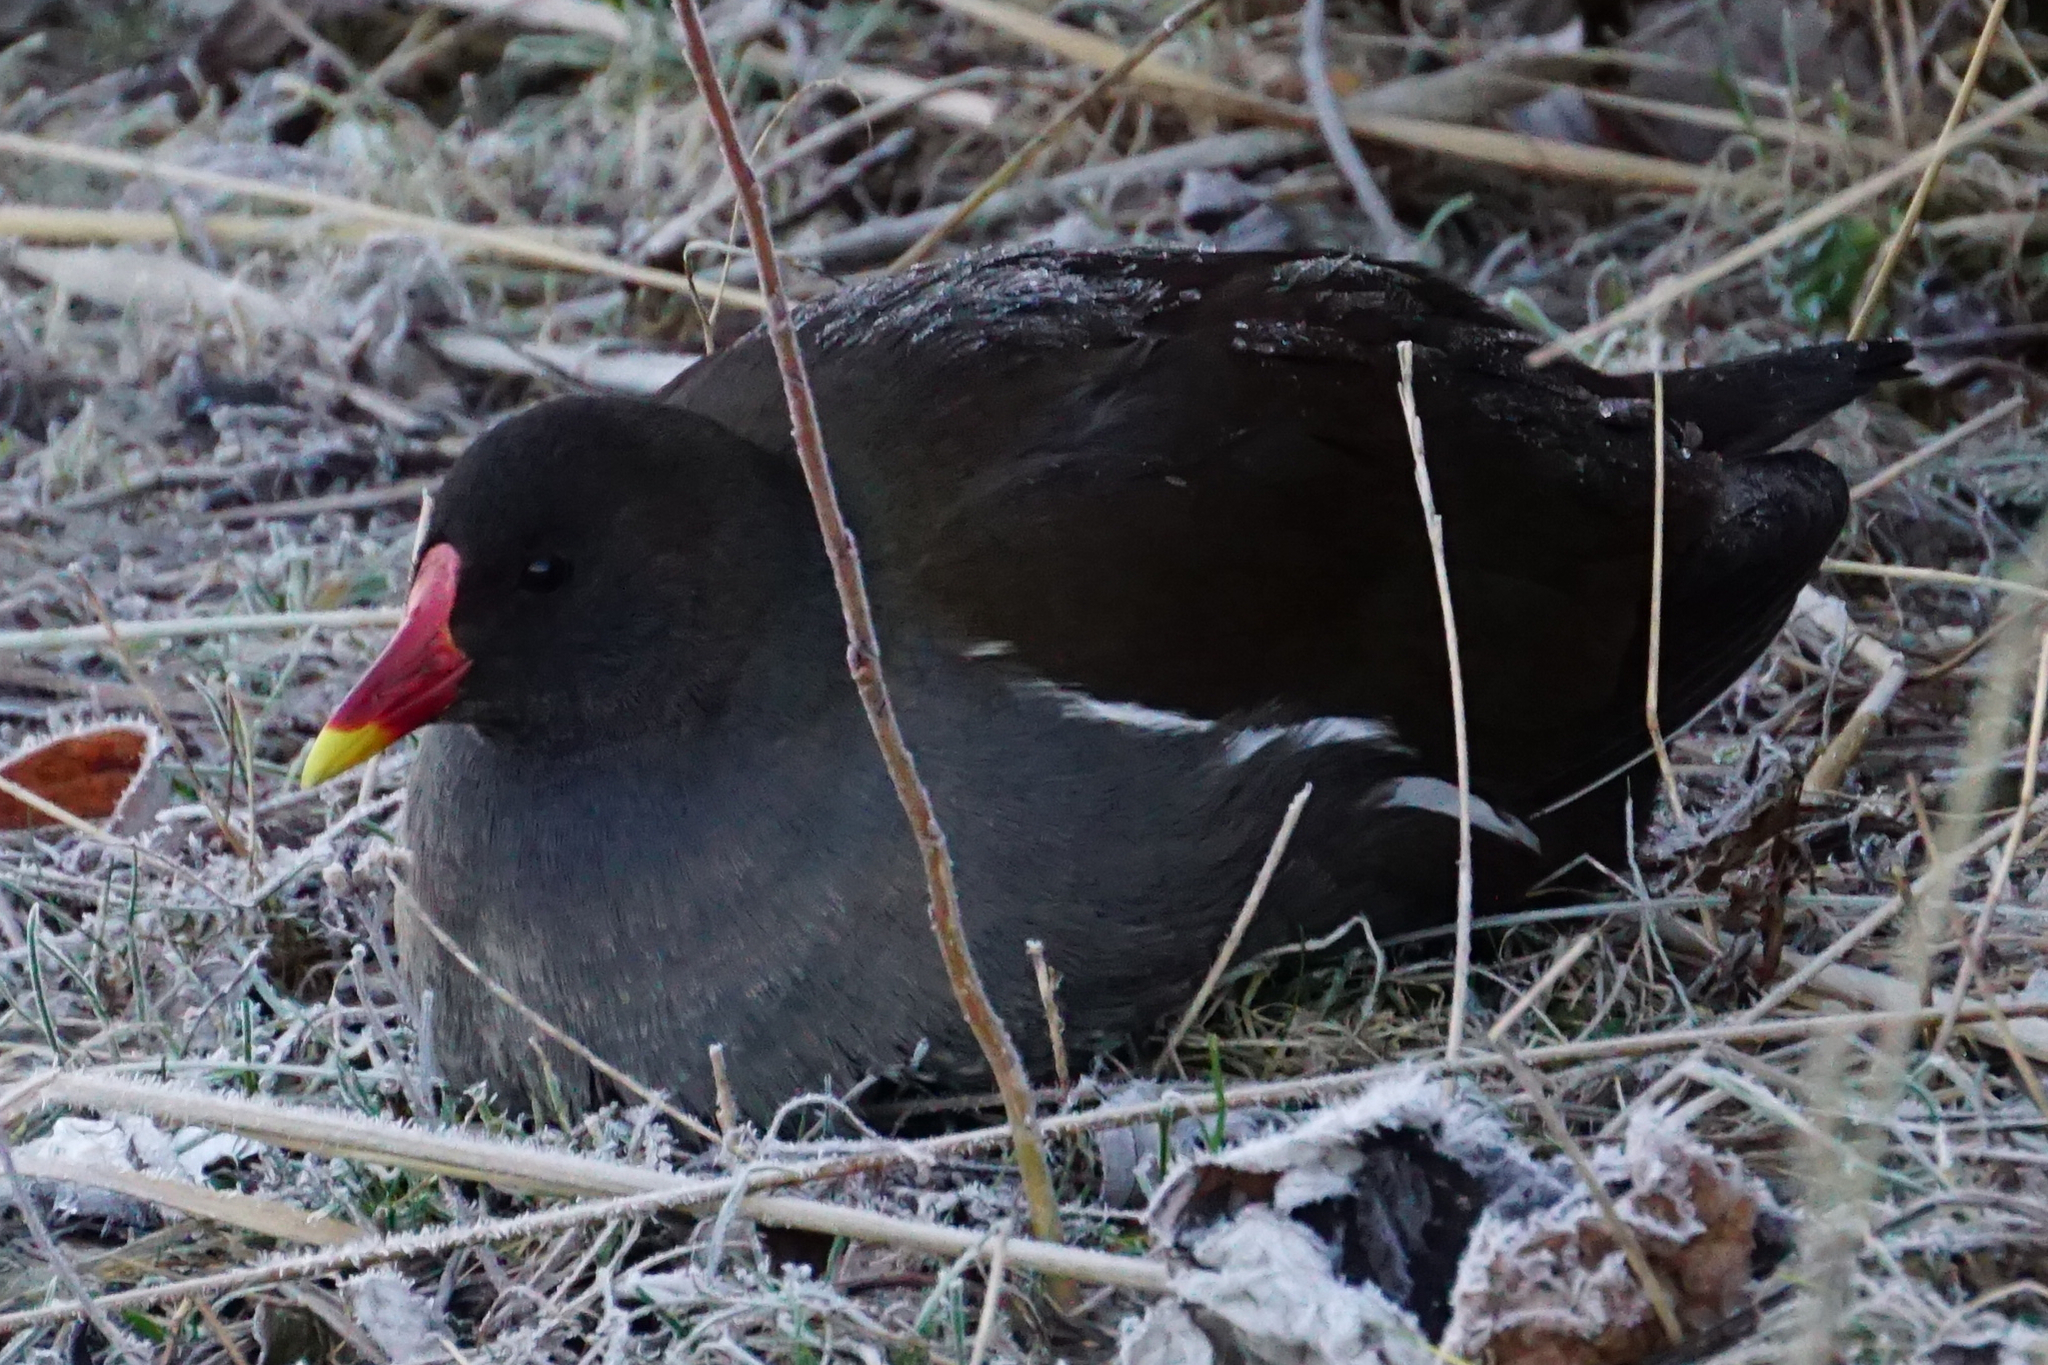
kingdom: Animalia
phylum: Chordata
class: Aves
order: Gruiformes
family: Rallidae
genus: Gallinula
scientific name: Gallinula chloropus
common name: Common moorhen
